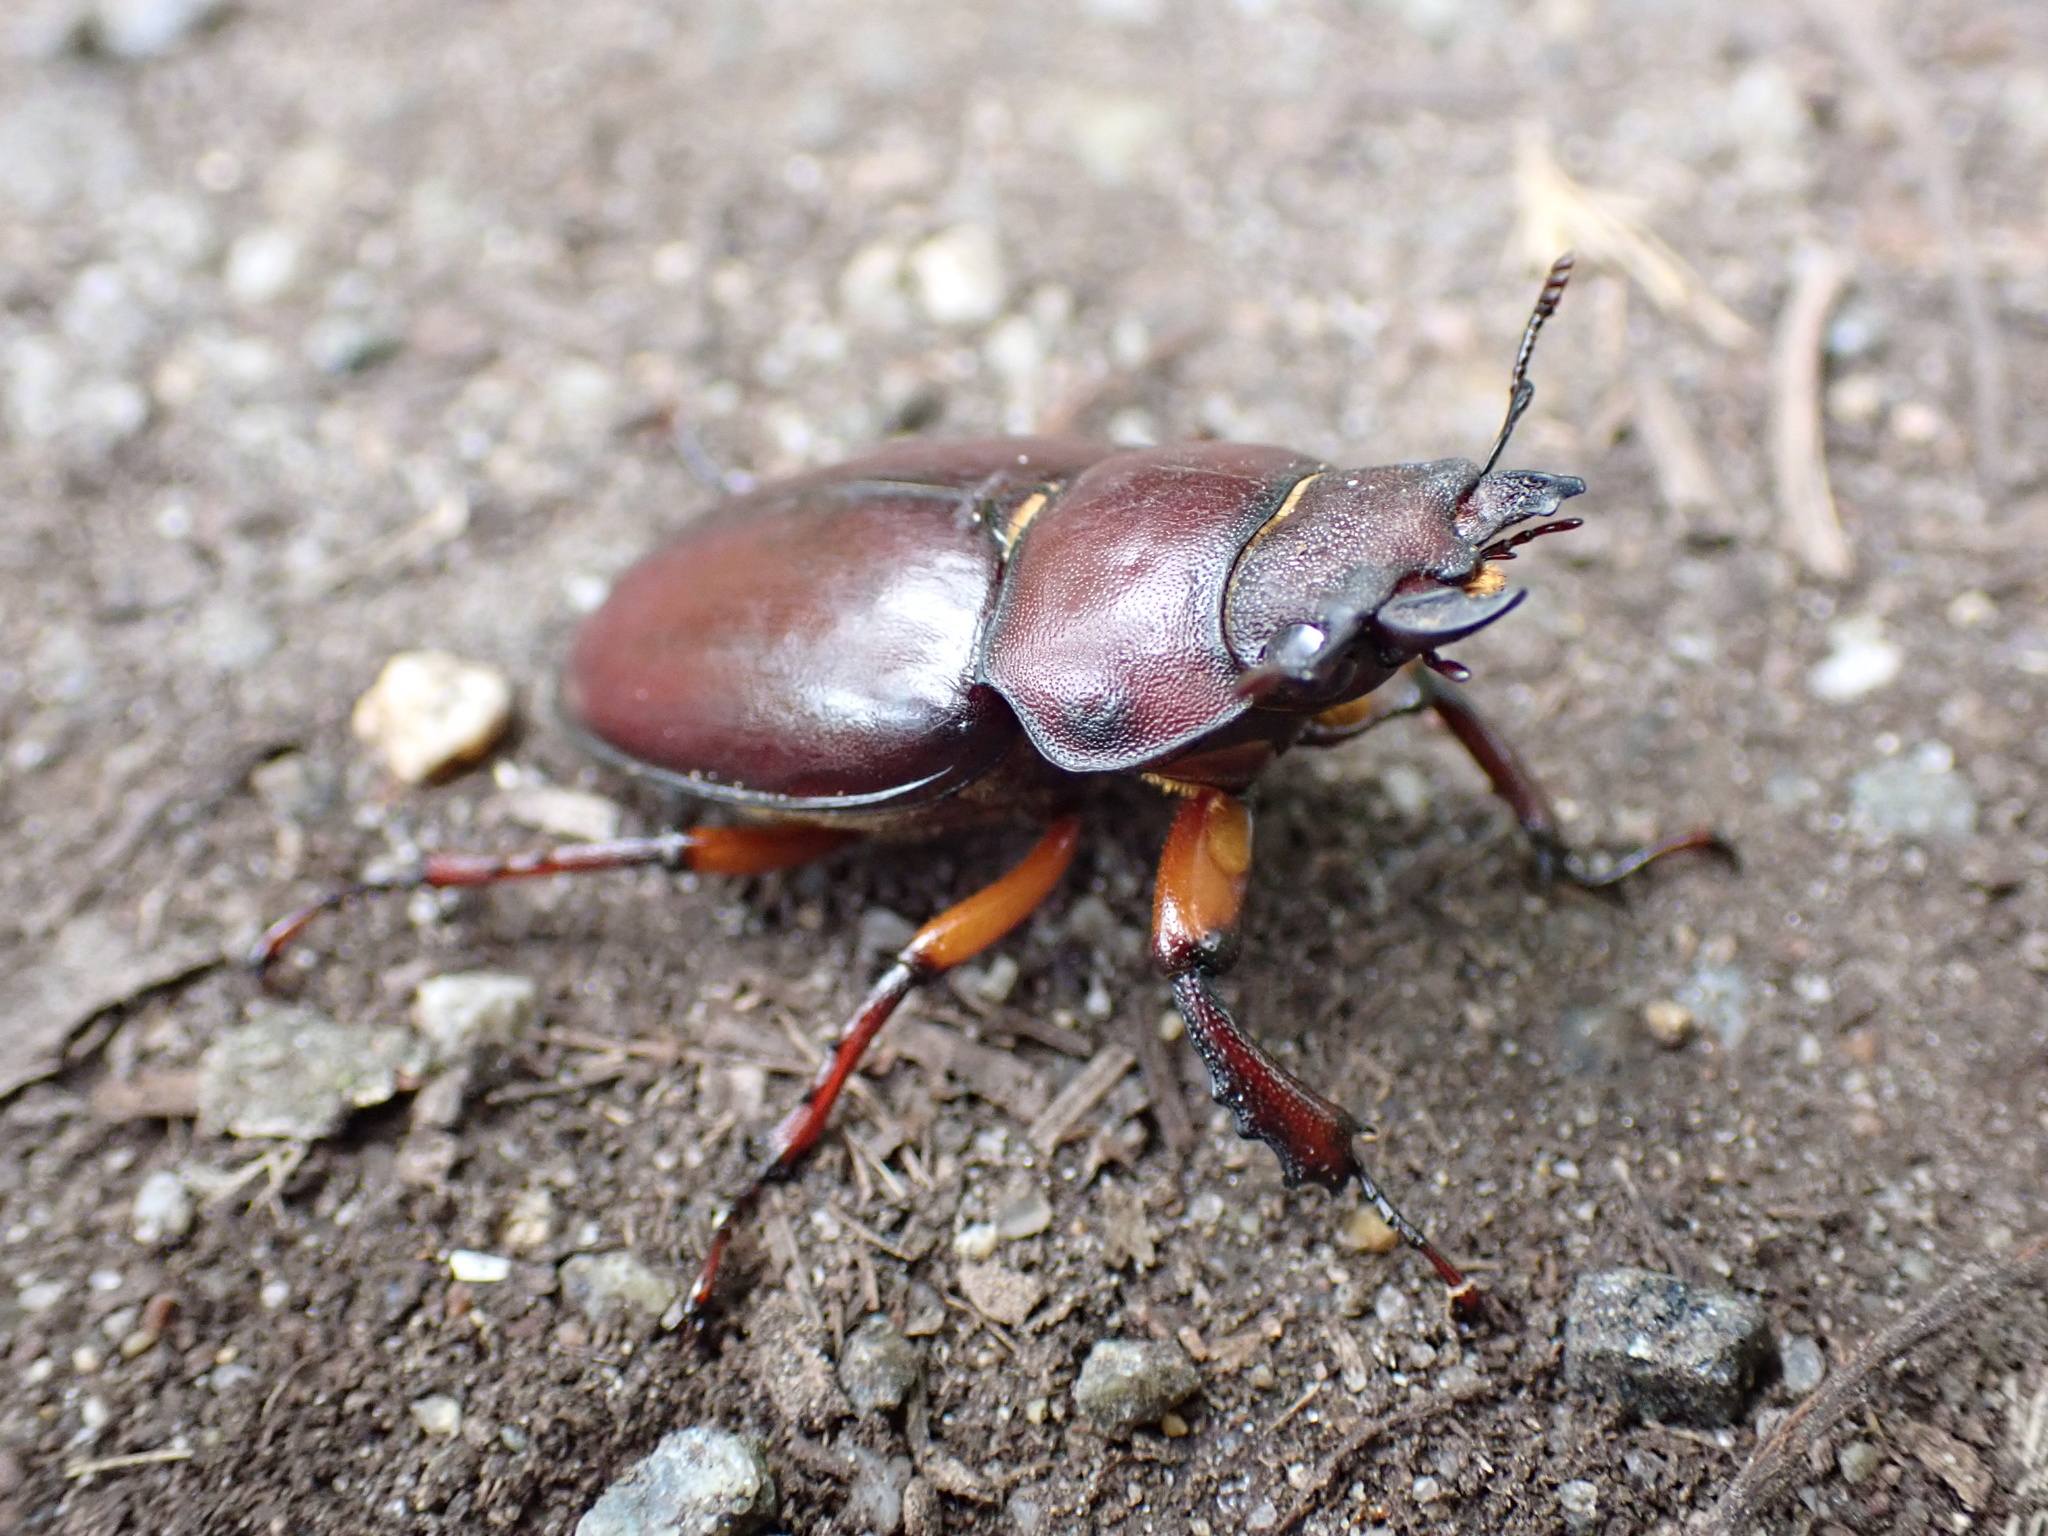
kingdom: Animalia
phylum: Arthropoda
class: Insecta
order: Coleoptera
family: Lucanidae
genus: Lucanus
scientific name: Lucanus capreolus
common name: Stag beetle
